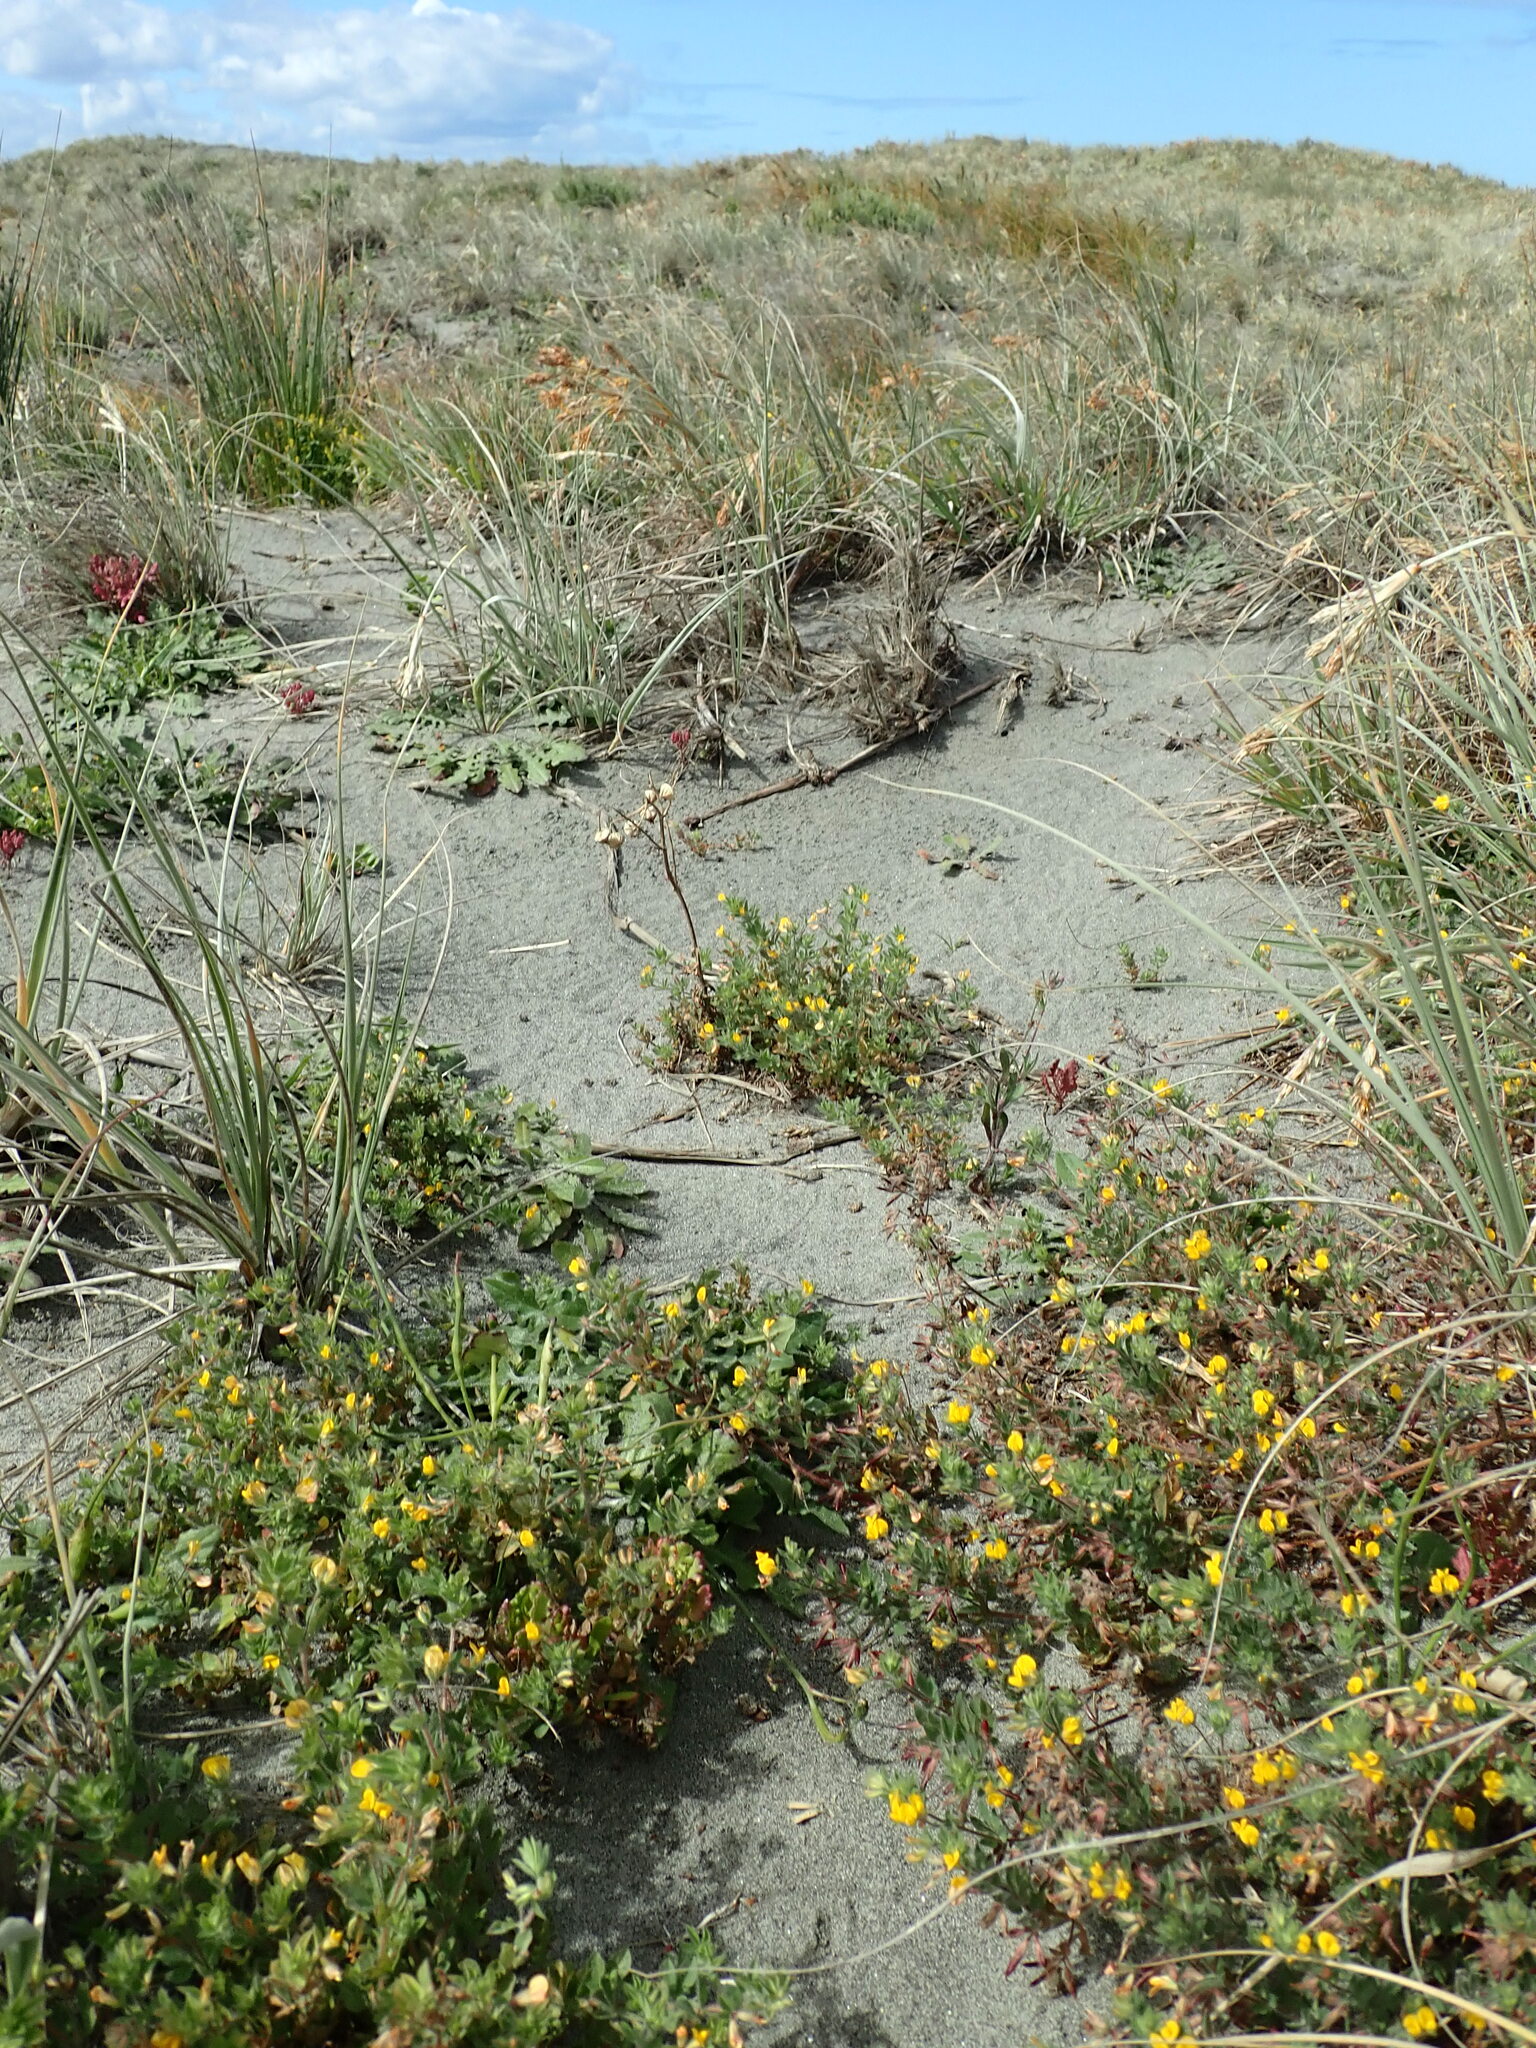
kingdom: Plantae
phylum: Tracheophyta
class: Magnoliopsida
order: Fabales
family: Fabaceae
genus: Lotus
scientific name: Lotus subbiflorus
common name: Hairy bird's-foot trefoil
